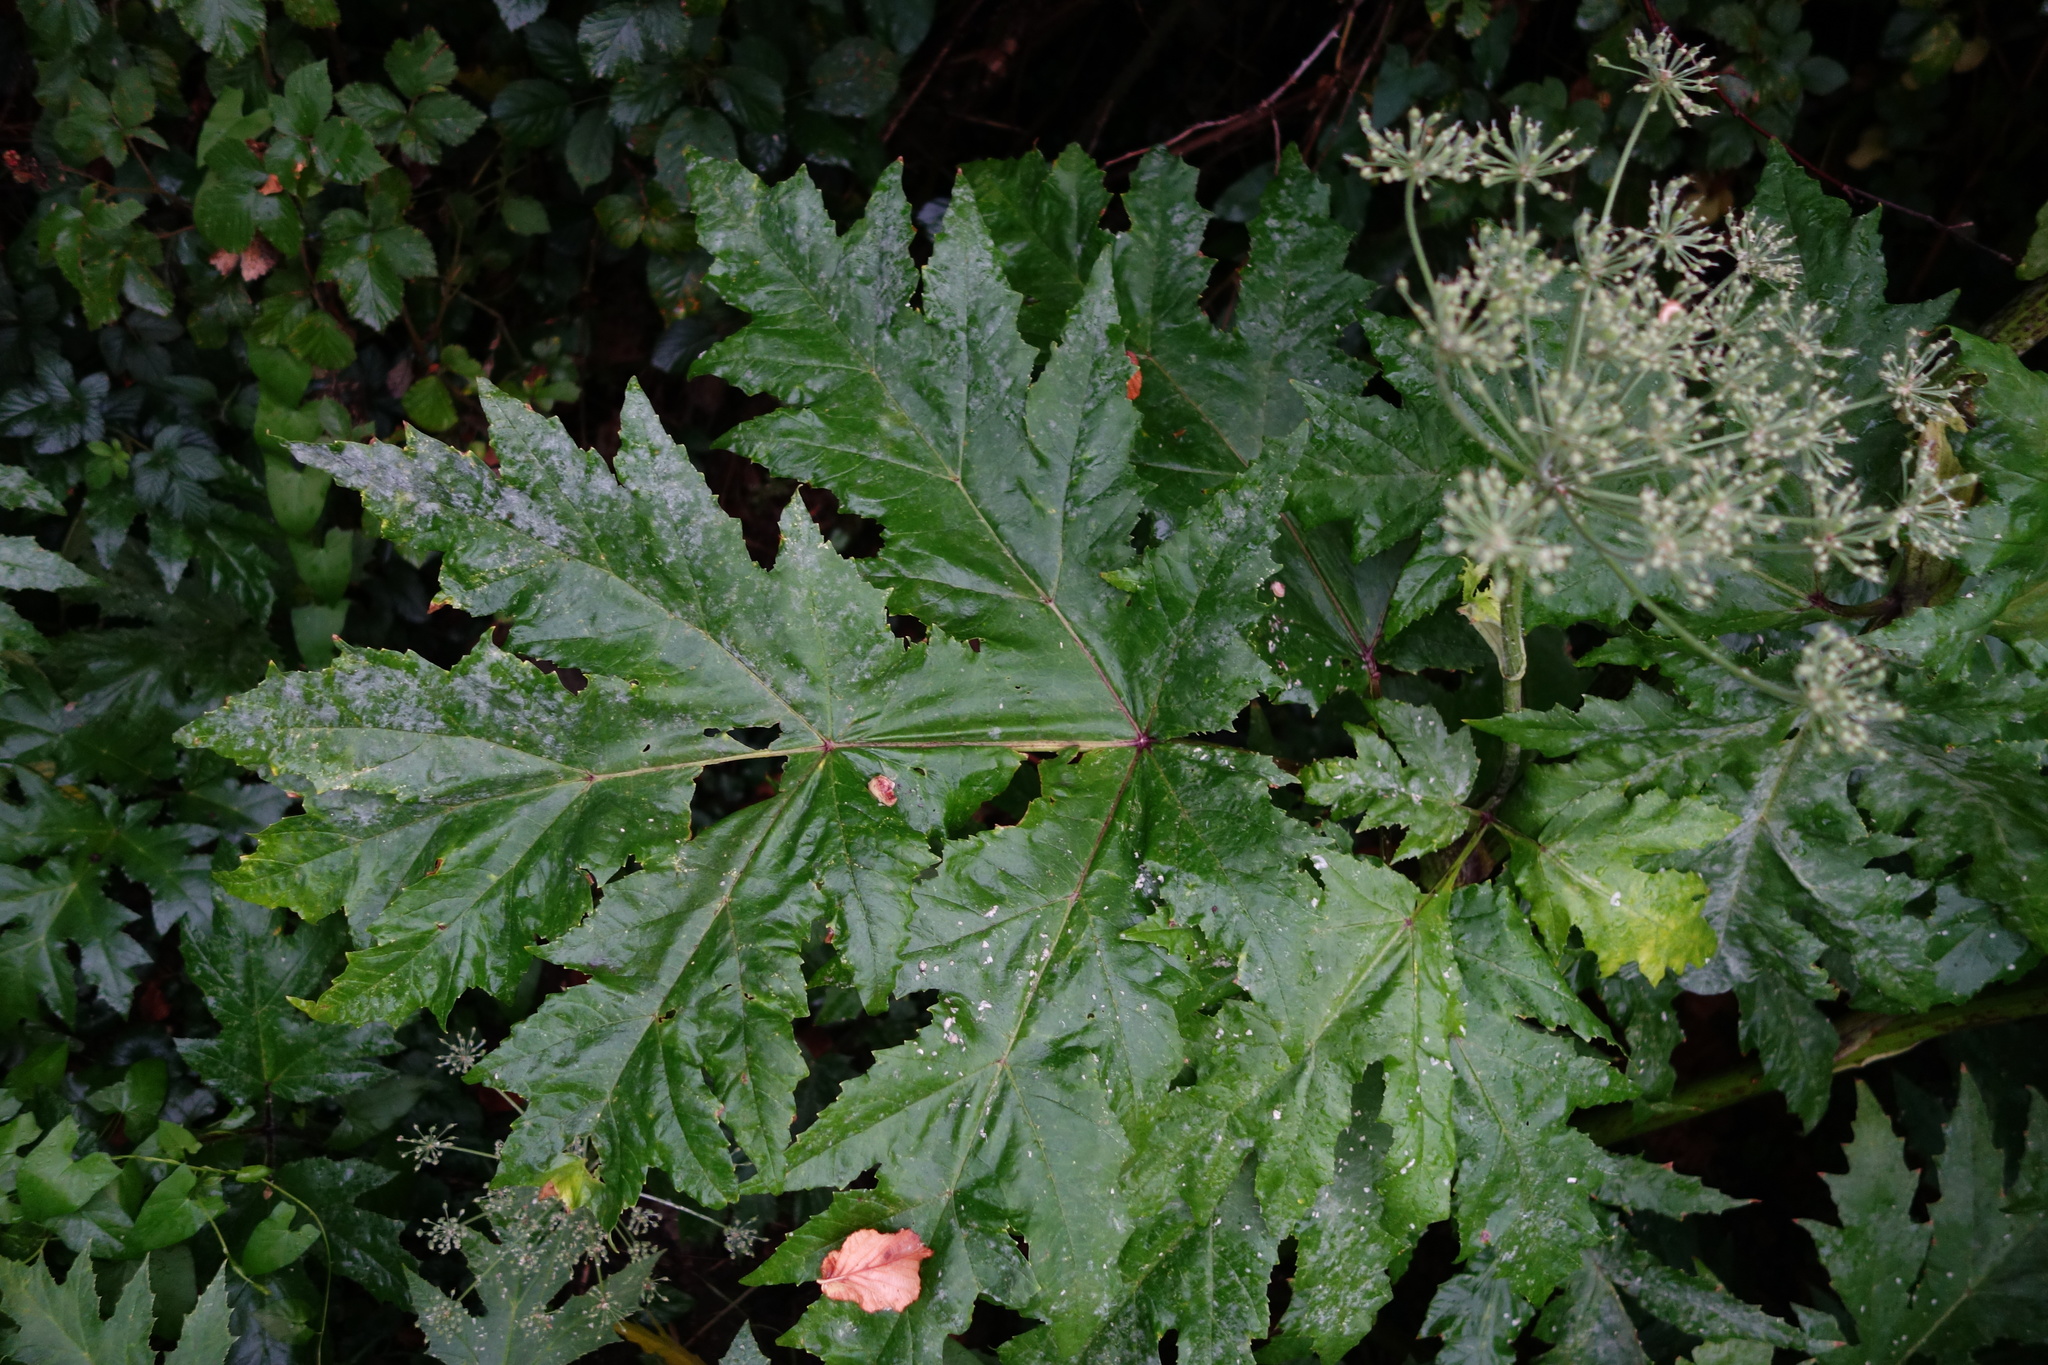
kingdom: Plantae
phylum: Tracheophyta
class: Magnoliopsida
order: Apiales
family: Apiaceae
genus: Heracleum
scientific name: Heracleum mantegazzianum
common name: Giant hogweed
